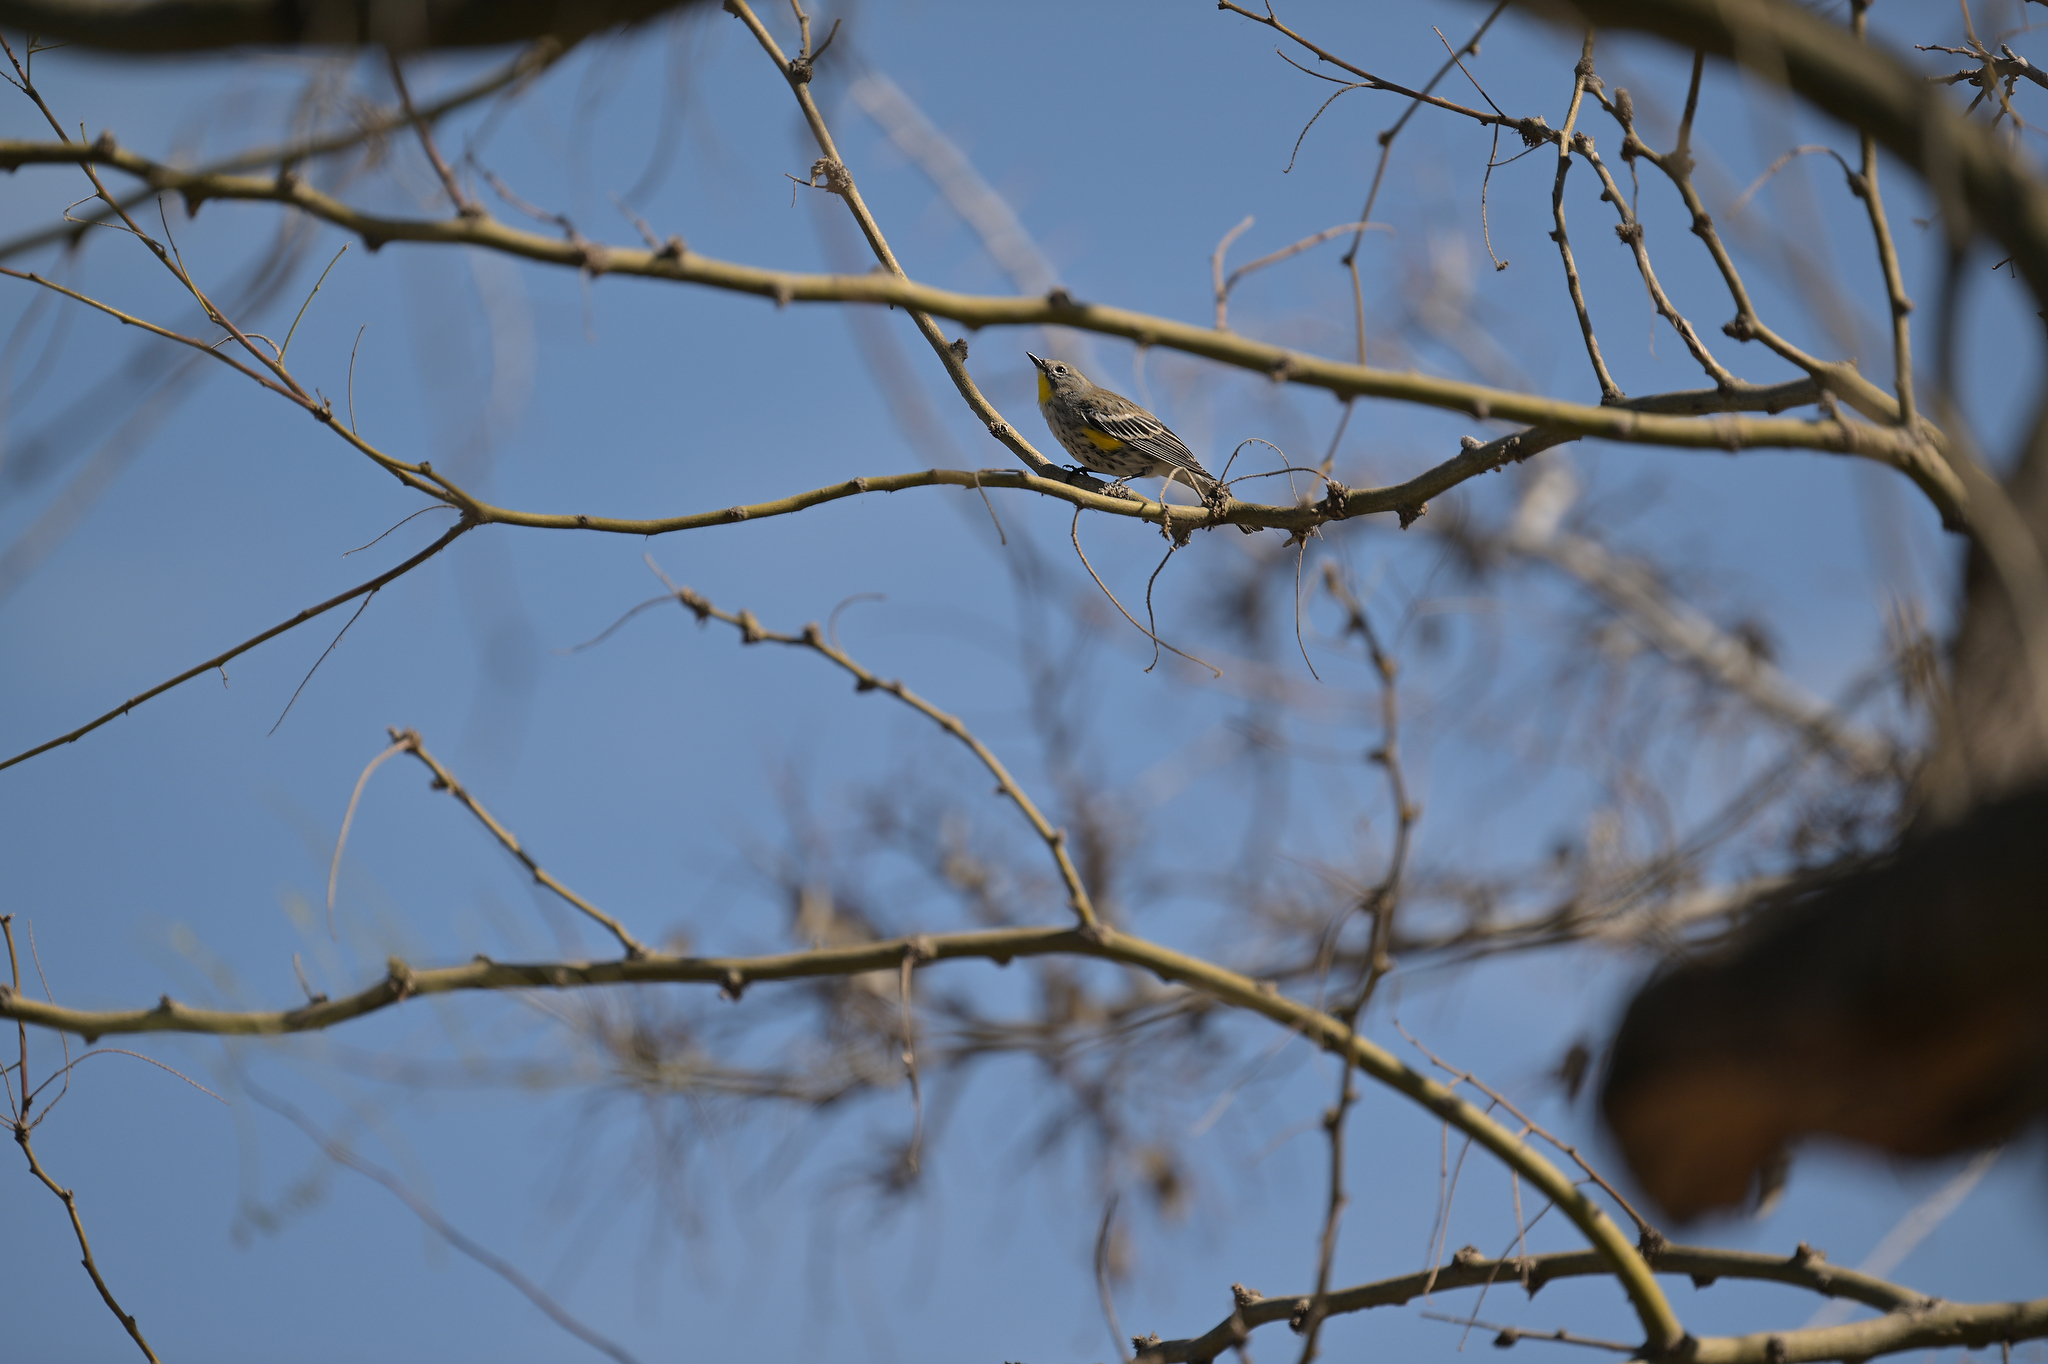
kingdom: Animalia
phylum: Chordata
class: Aves
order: Passeriformes
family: Parulidae
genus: Setophaga
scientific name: Setophaga coronata
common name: Myrtle warbler
